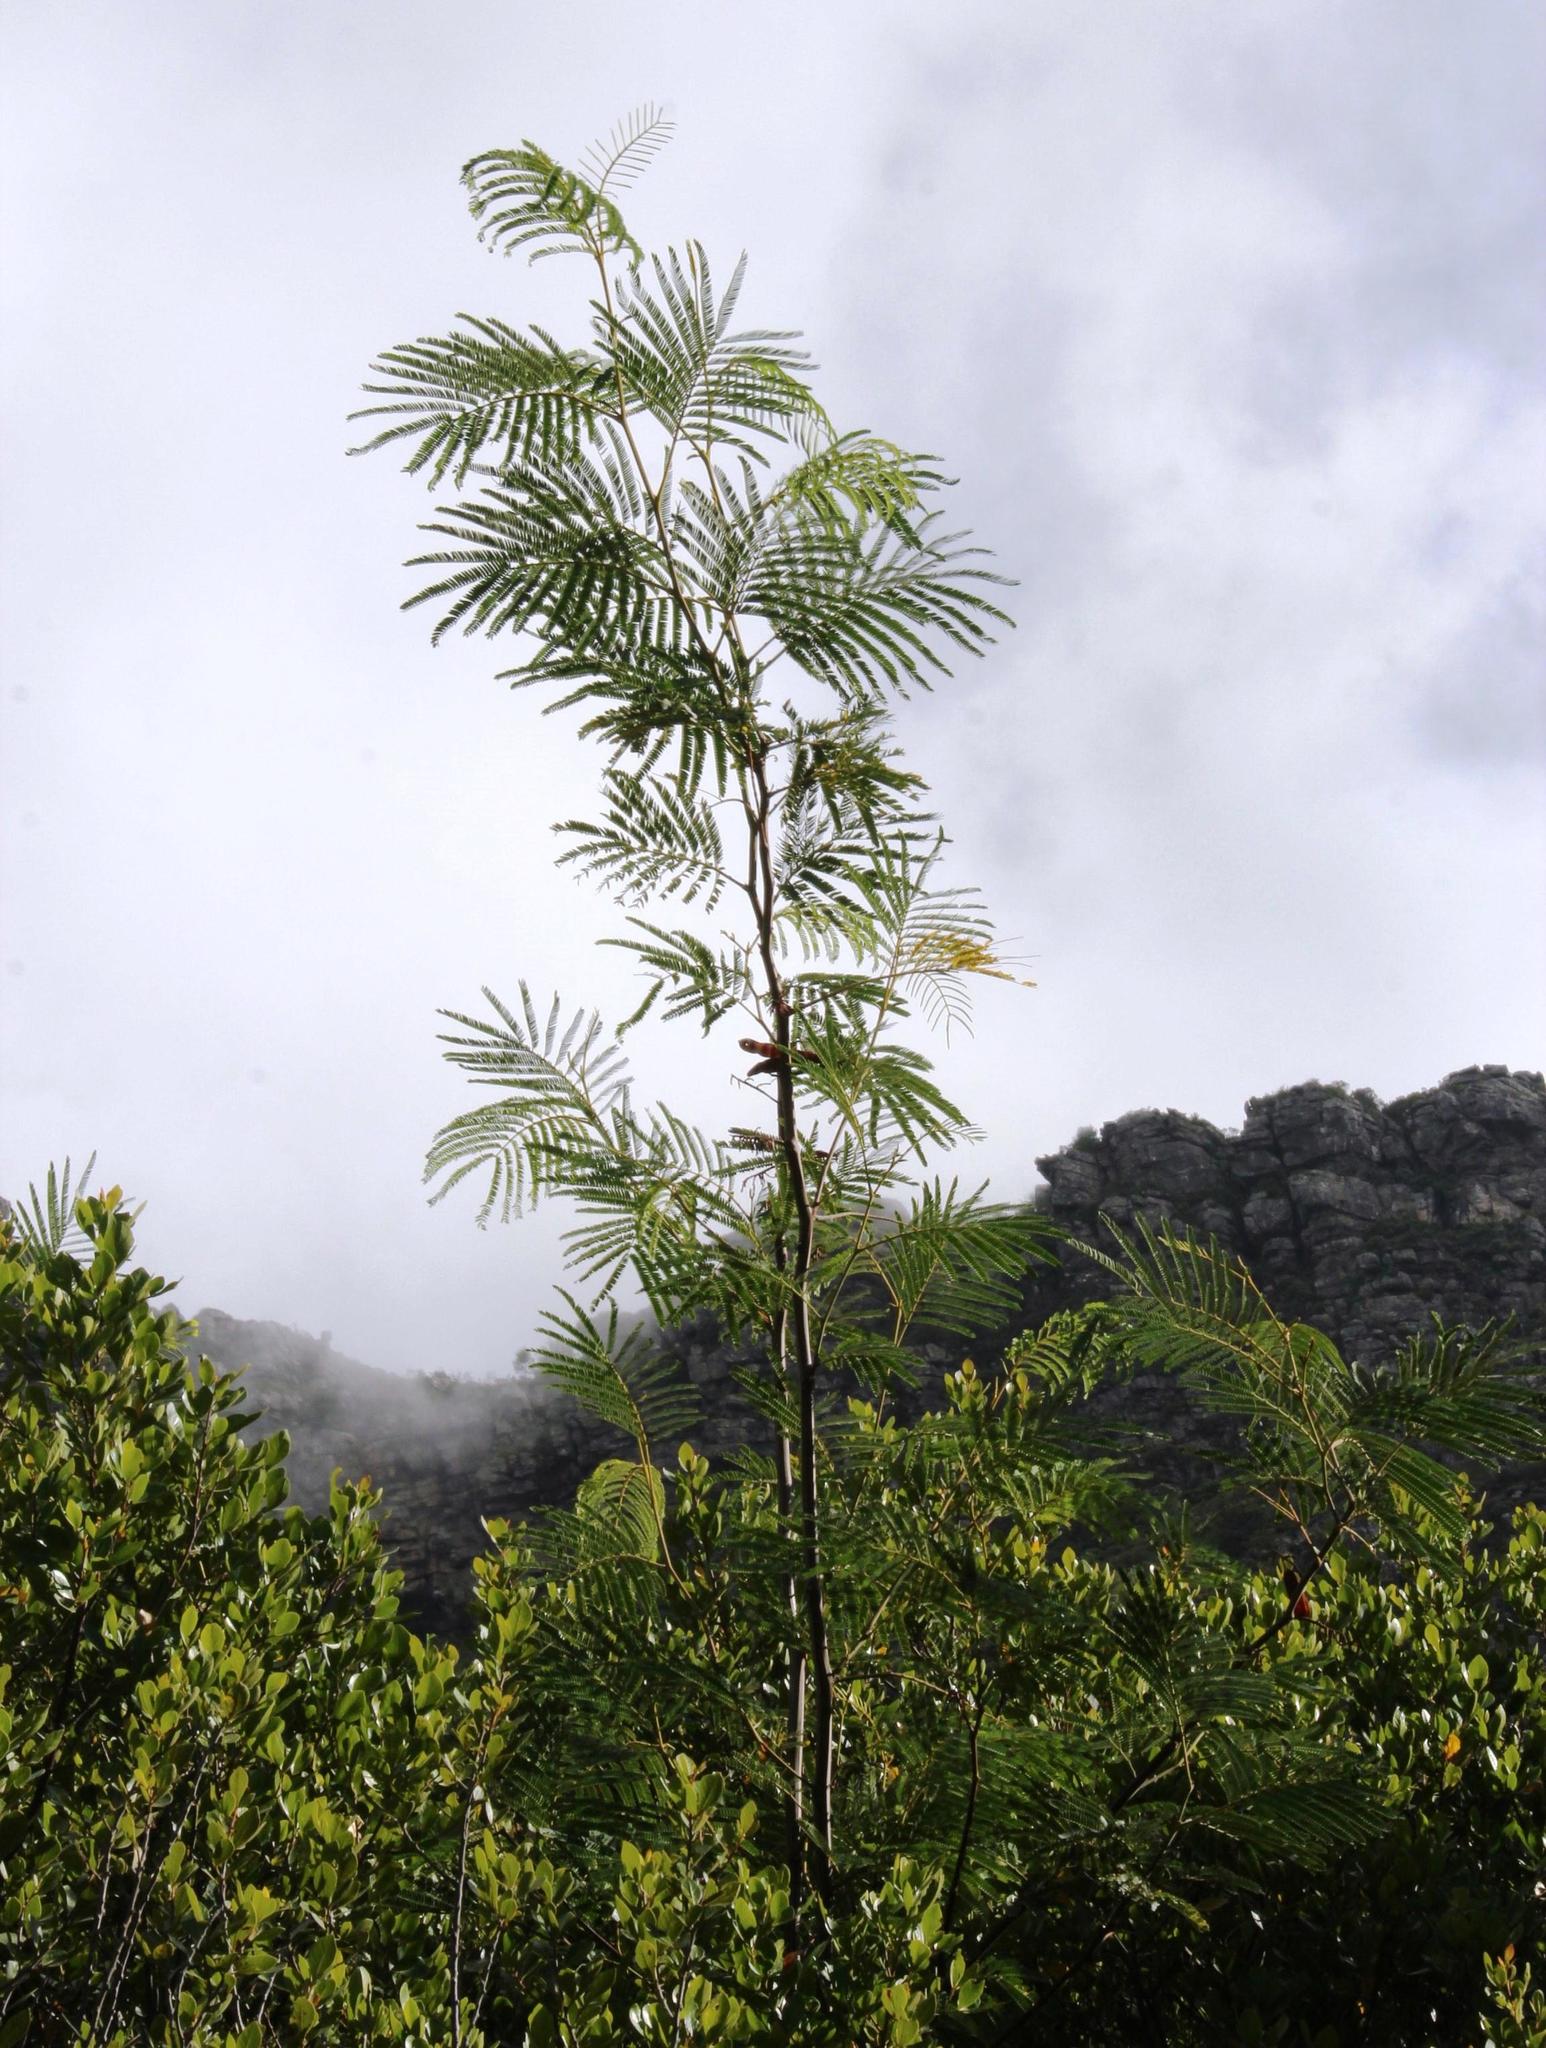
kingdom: Plantae
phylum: Tracheophyta
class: Magnoliopsida
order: Fabales
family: Fabaceae
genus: Paraserianthes
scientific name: Paraserianthes lophantha
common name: Plume albizia
